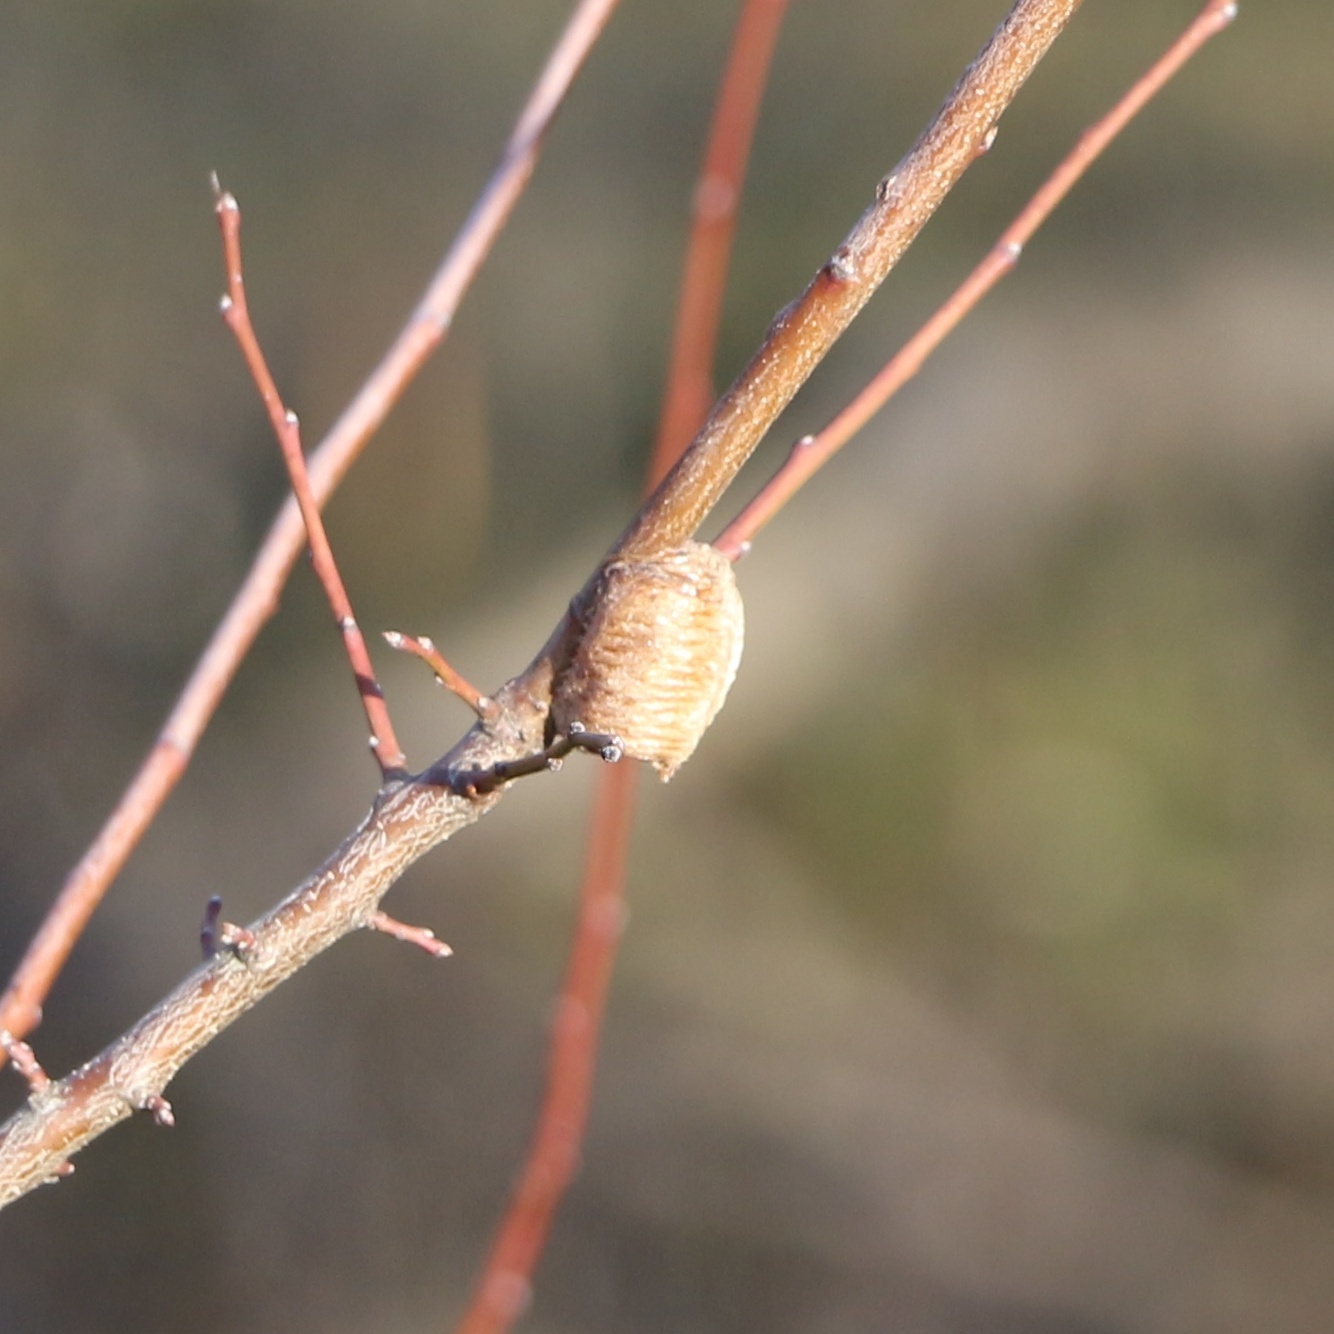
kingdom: Animalia
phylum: Arthropoda
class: Insecta
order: Mantodea
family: Mantidae
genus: Hierodula
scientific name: Hierodula transcaucasica
